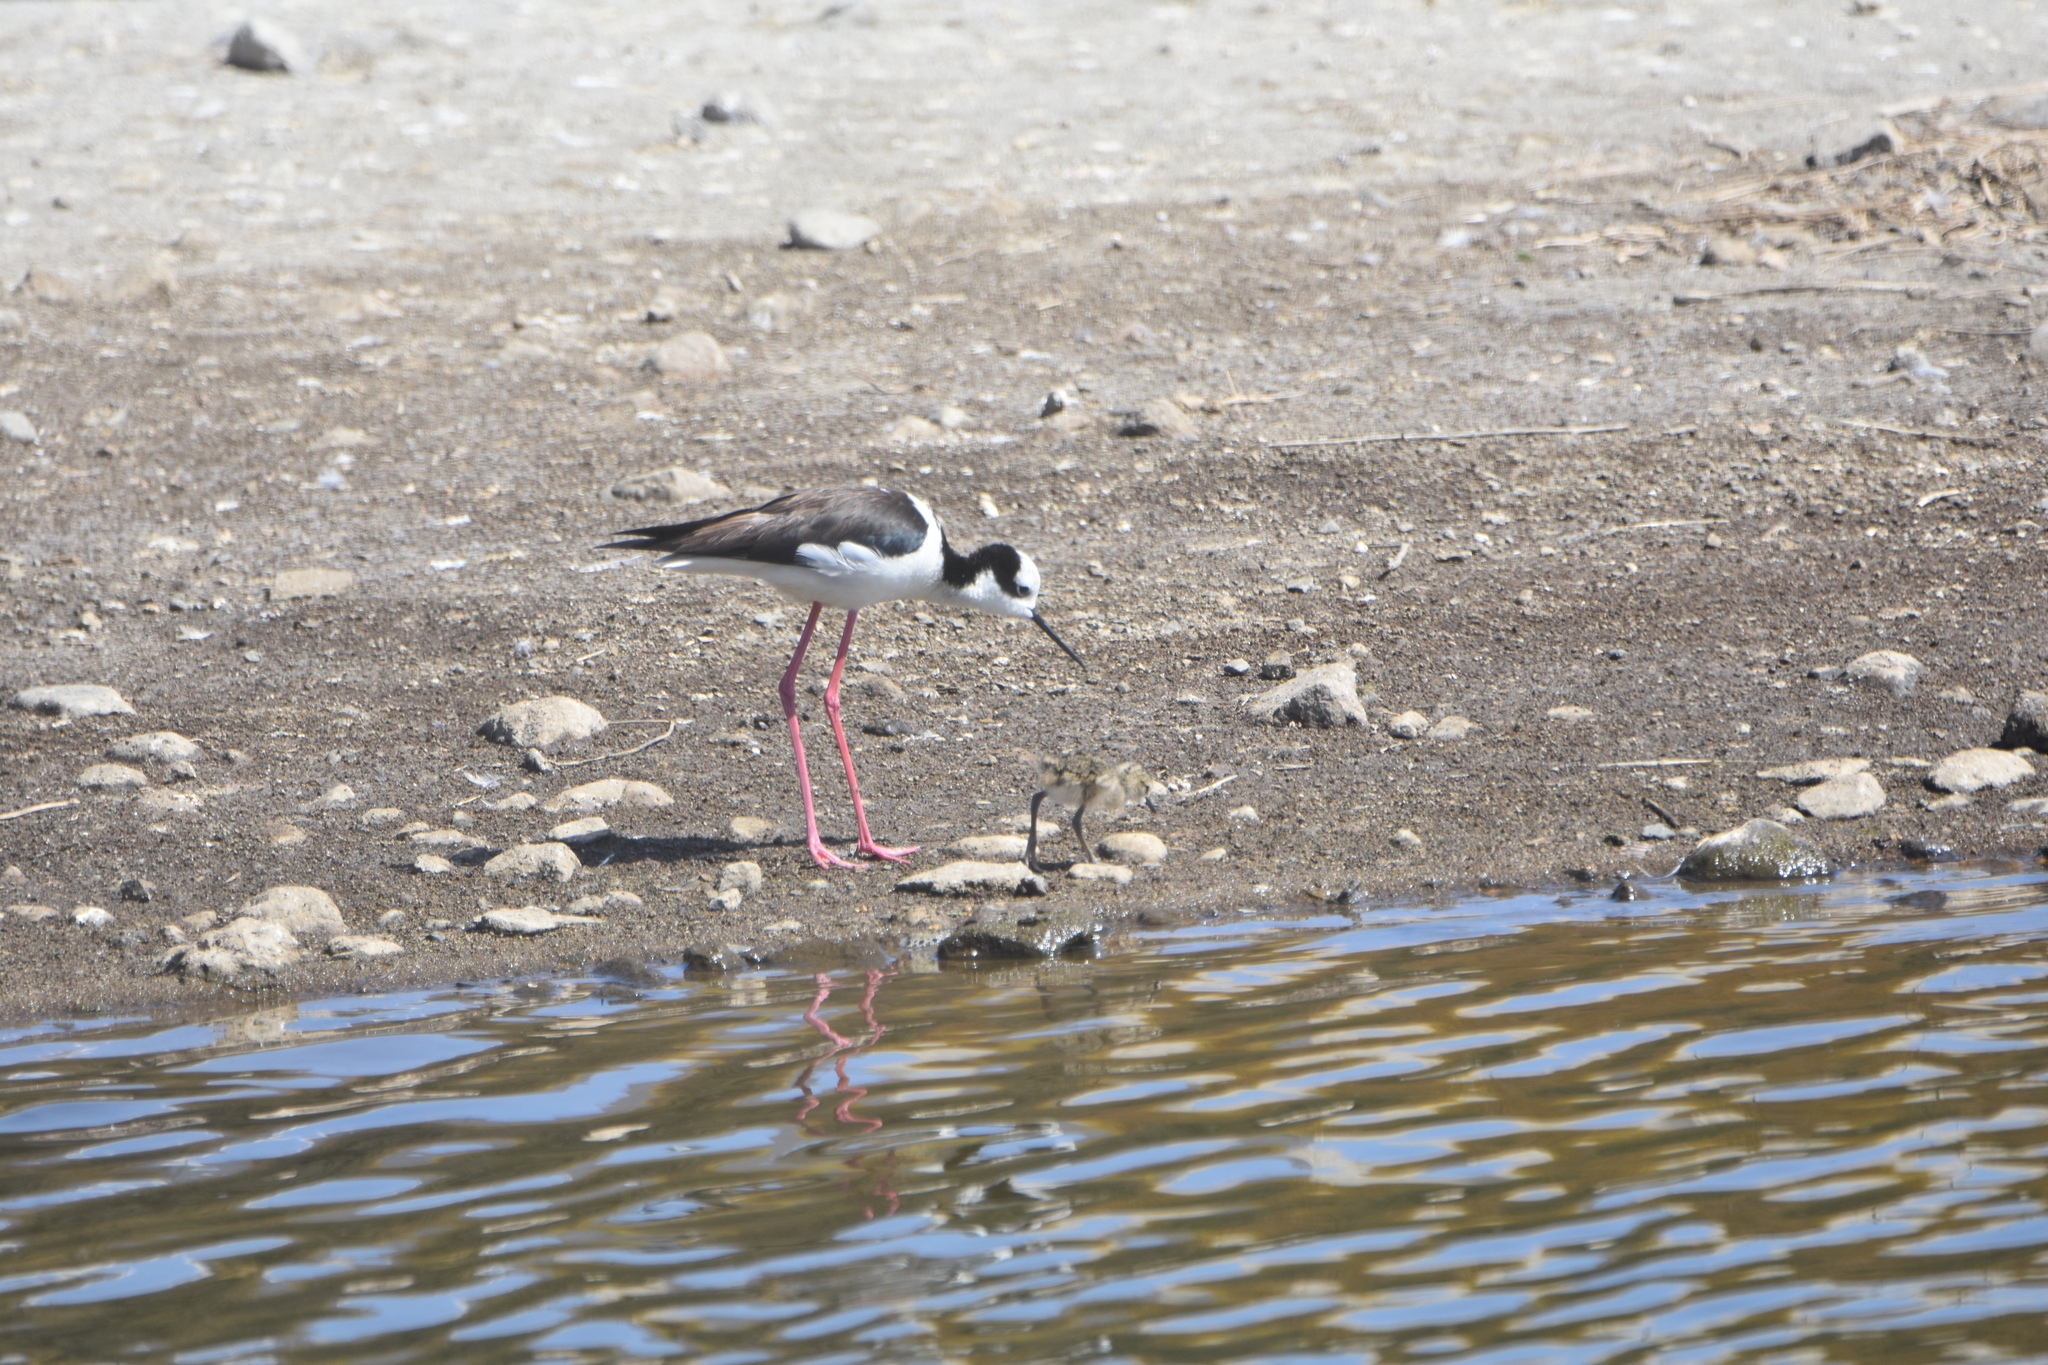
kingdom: Animalia
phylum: Chordata
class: Aves
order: Charadriiformes
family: Recurvirostridae
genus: Himantopus
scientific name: Himantopus mexicanus
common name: Black-necked stilt
